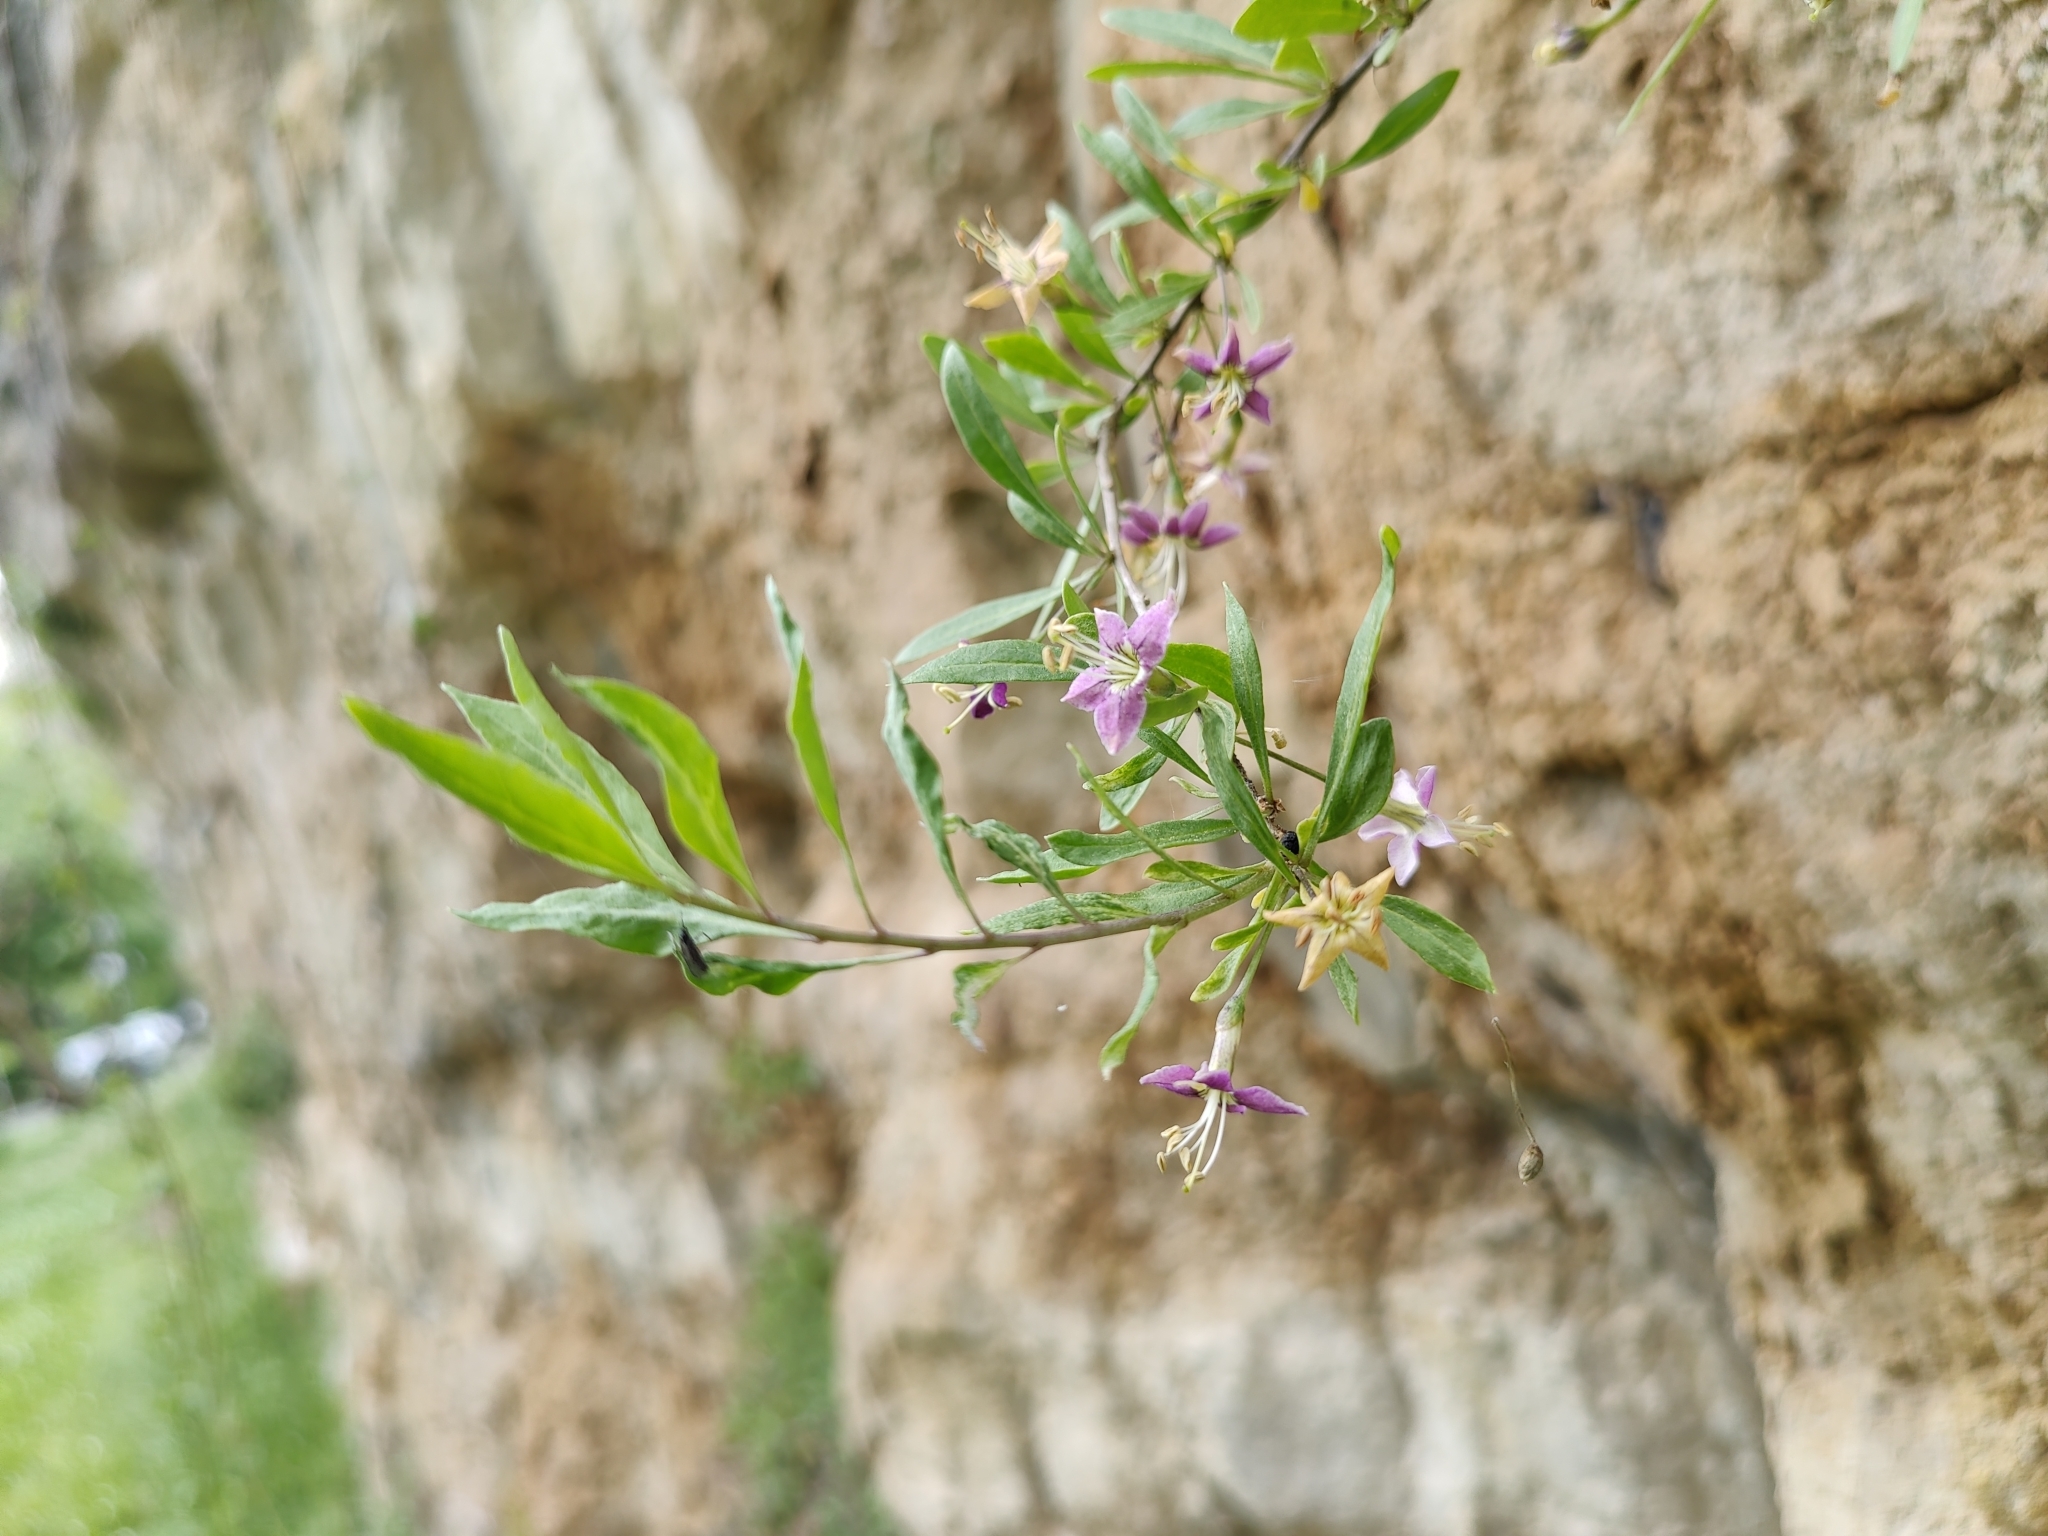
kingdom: Plantae
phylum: Tracheophyta
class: Magnoliopsida
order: Solanales
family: Solanaceae
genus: Lycium
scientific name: Lycium barbarum
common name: Duke of argyll's teaplant
